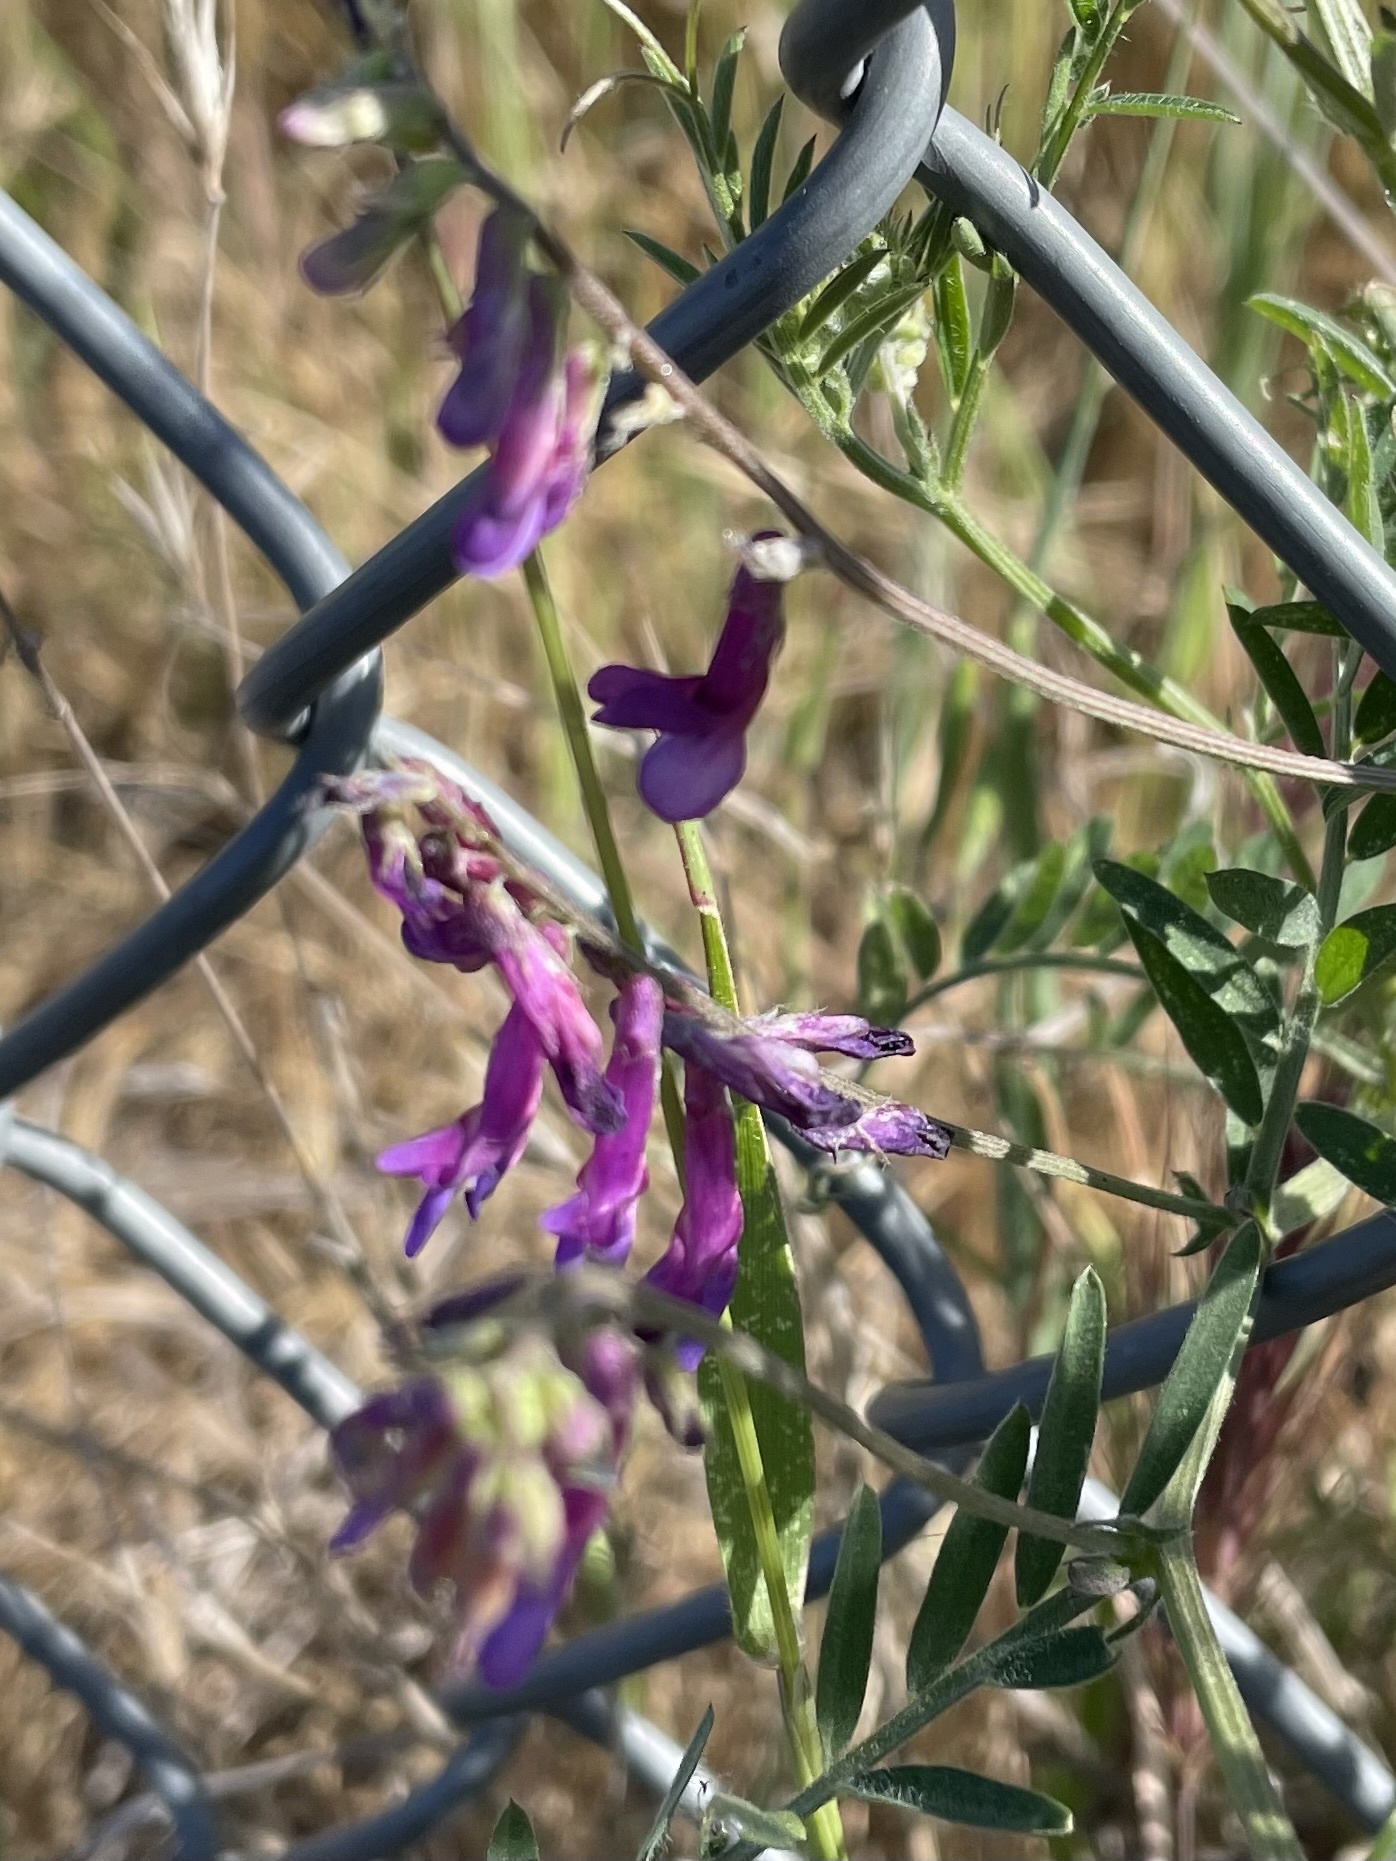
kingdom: Plantae
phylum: Tracheophyta
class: Magnoliopsida
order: Fabales
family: Fabaceae
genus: Vicia
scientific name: Vicia villosa
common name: Fodder vetch
